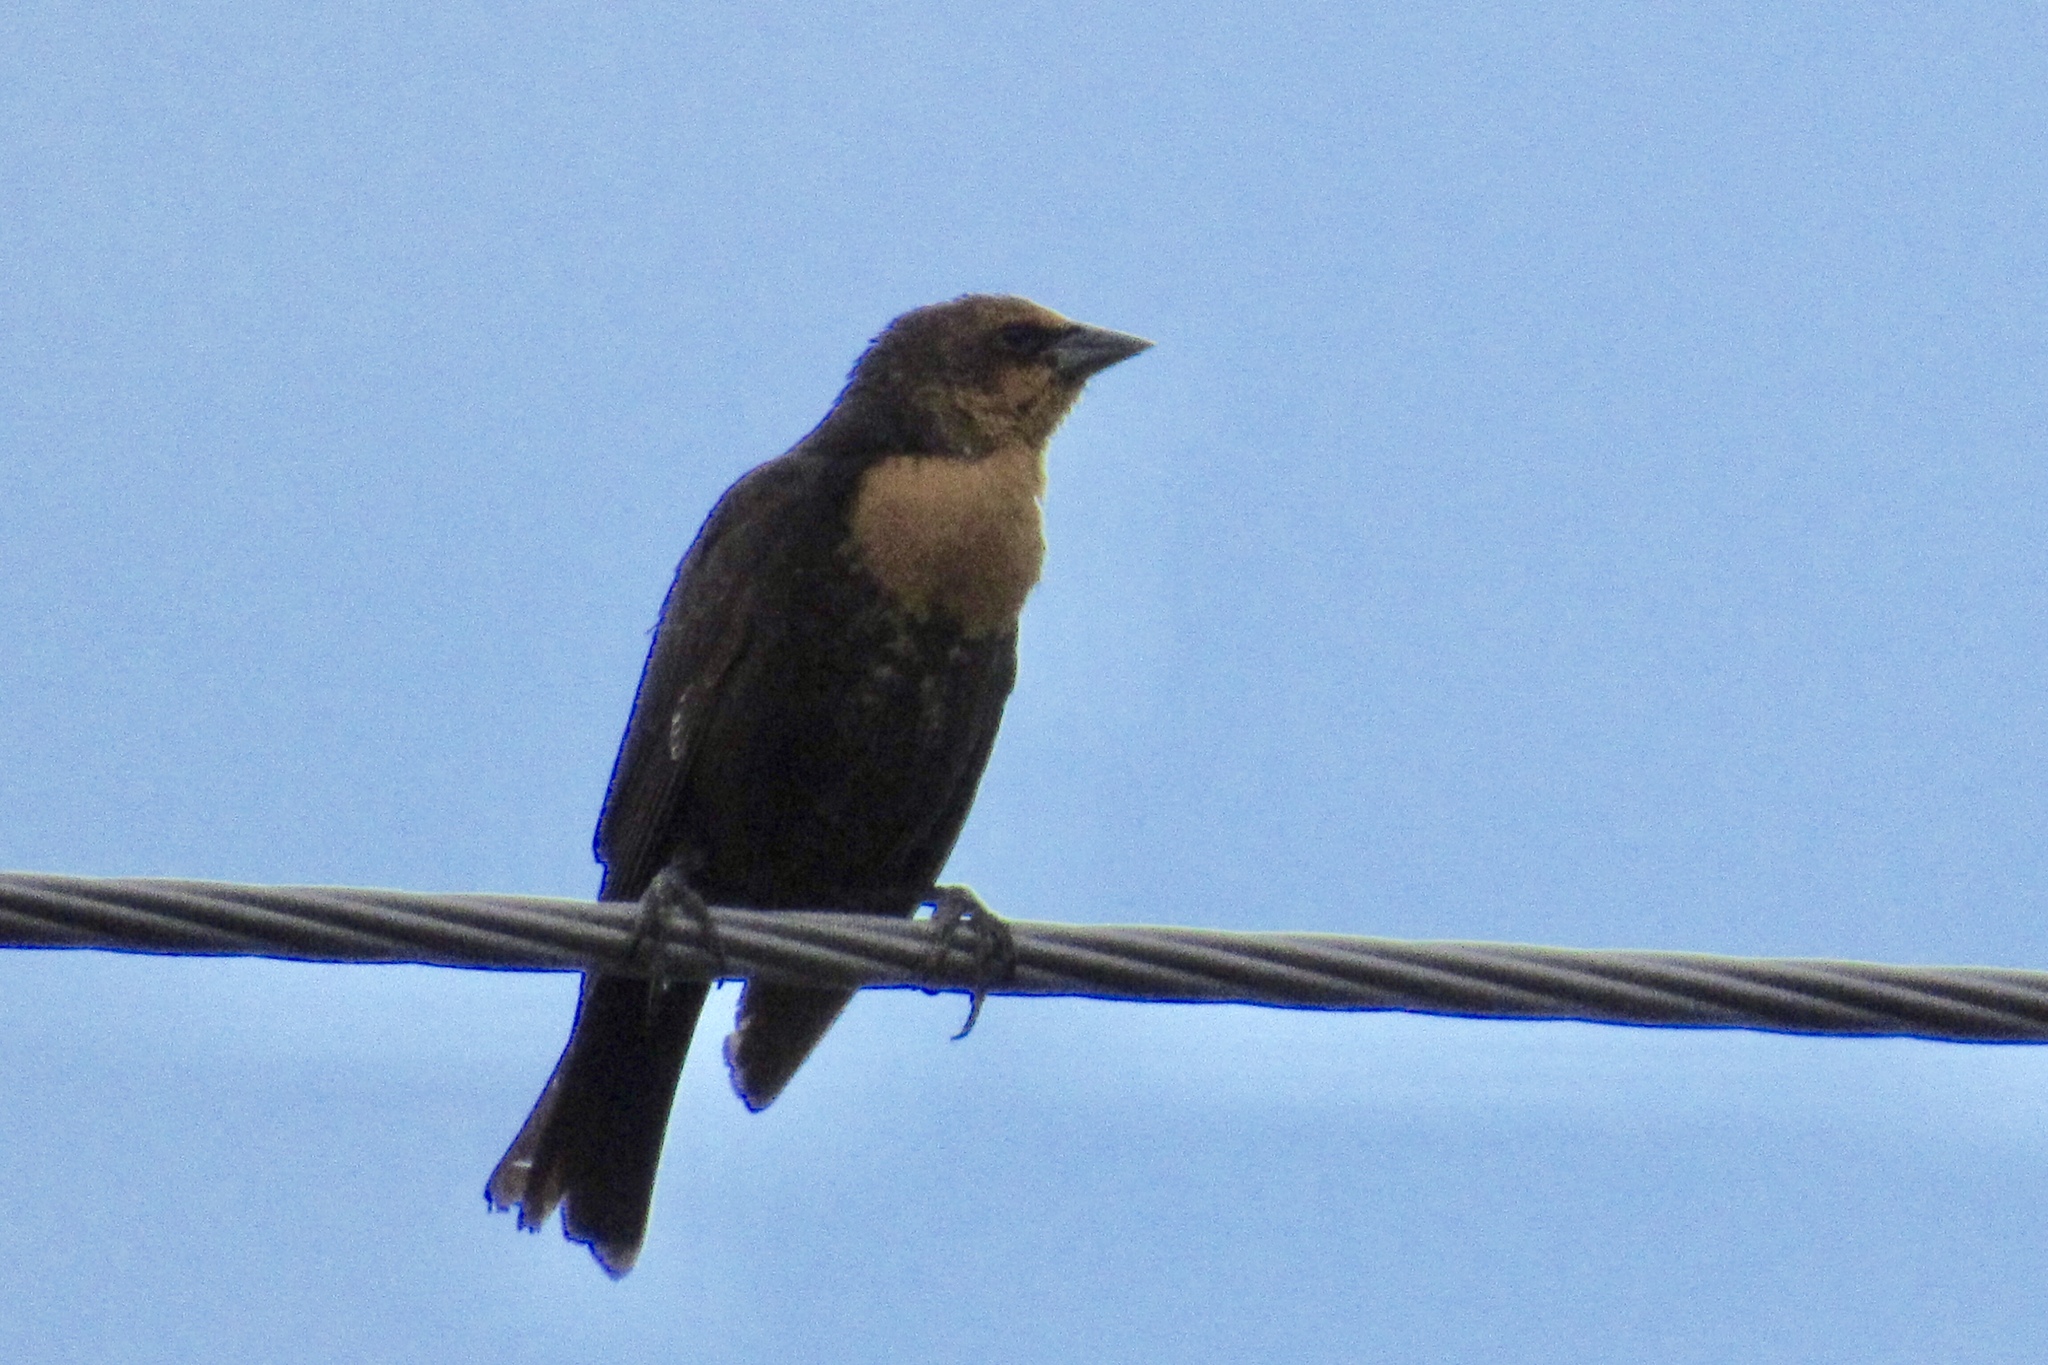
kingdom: Animalia
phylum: Chordata
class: Aves
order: Passeriformes
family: Icteridae
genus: Xanthocephalus
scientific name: Xanthocephalus xanthocephalus
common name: Yellow-headed blackbird
